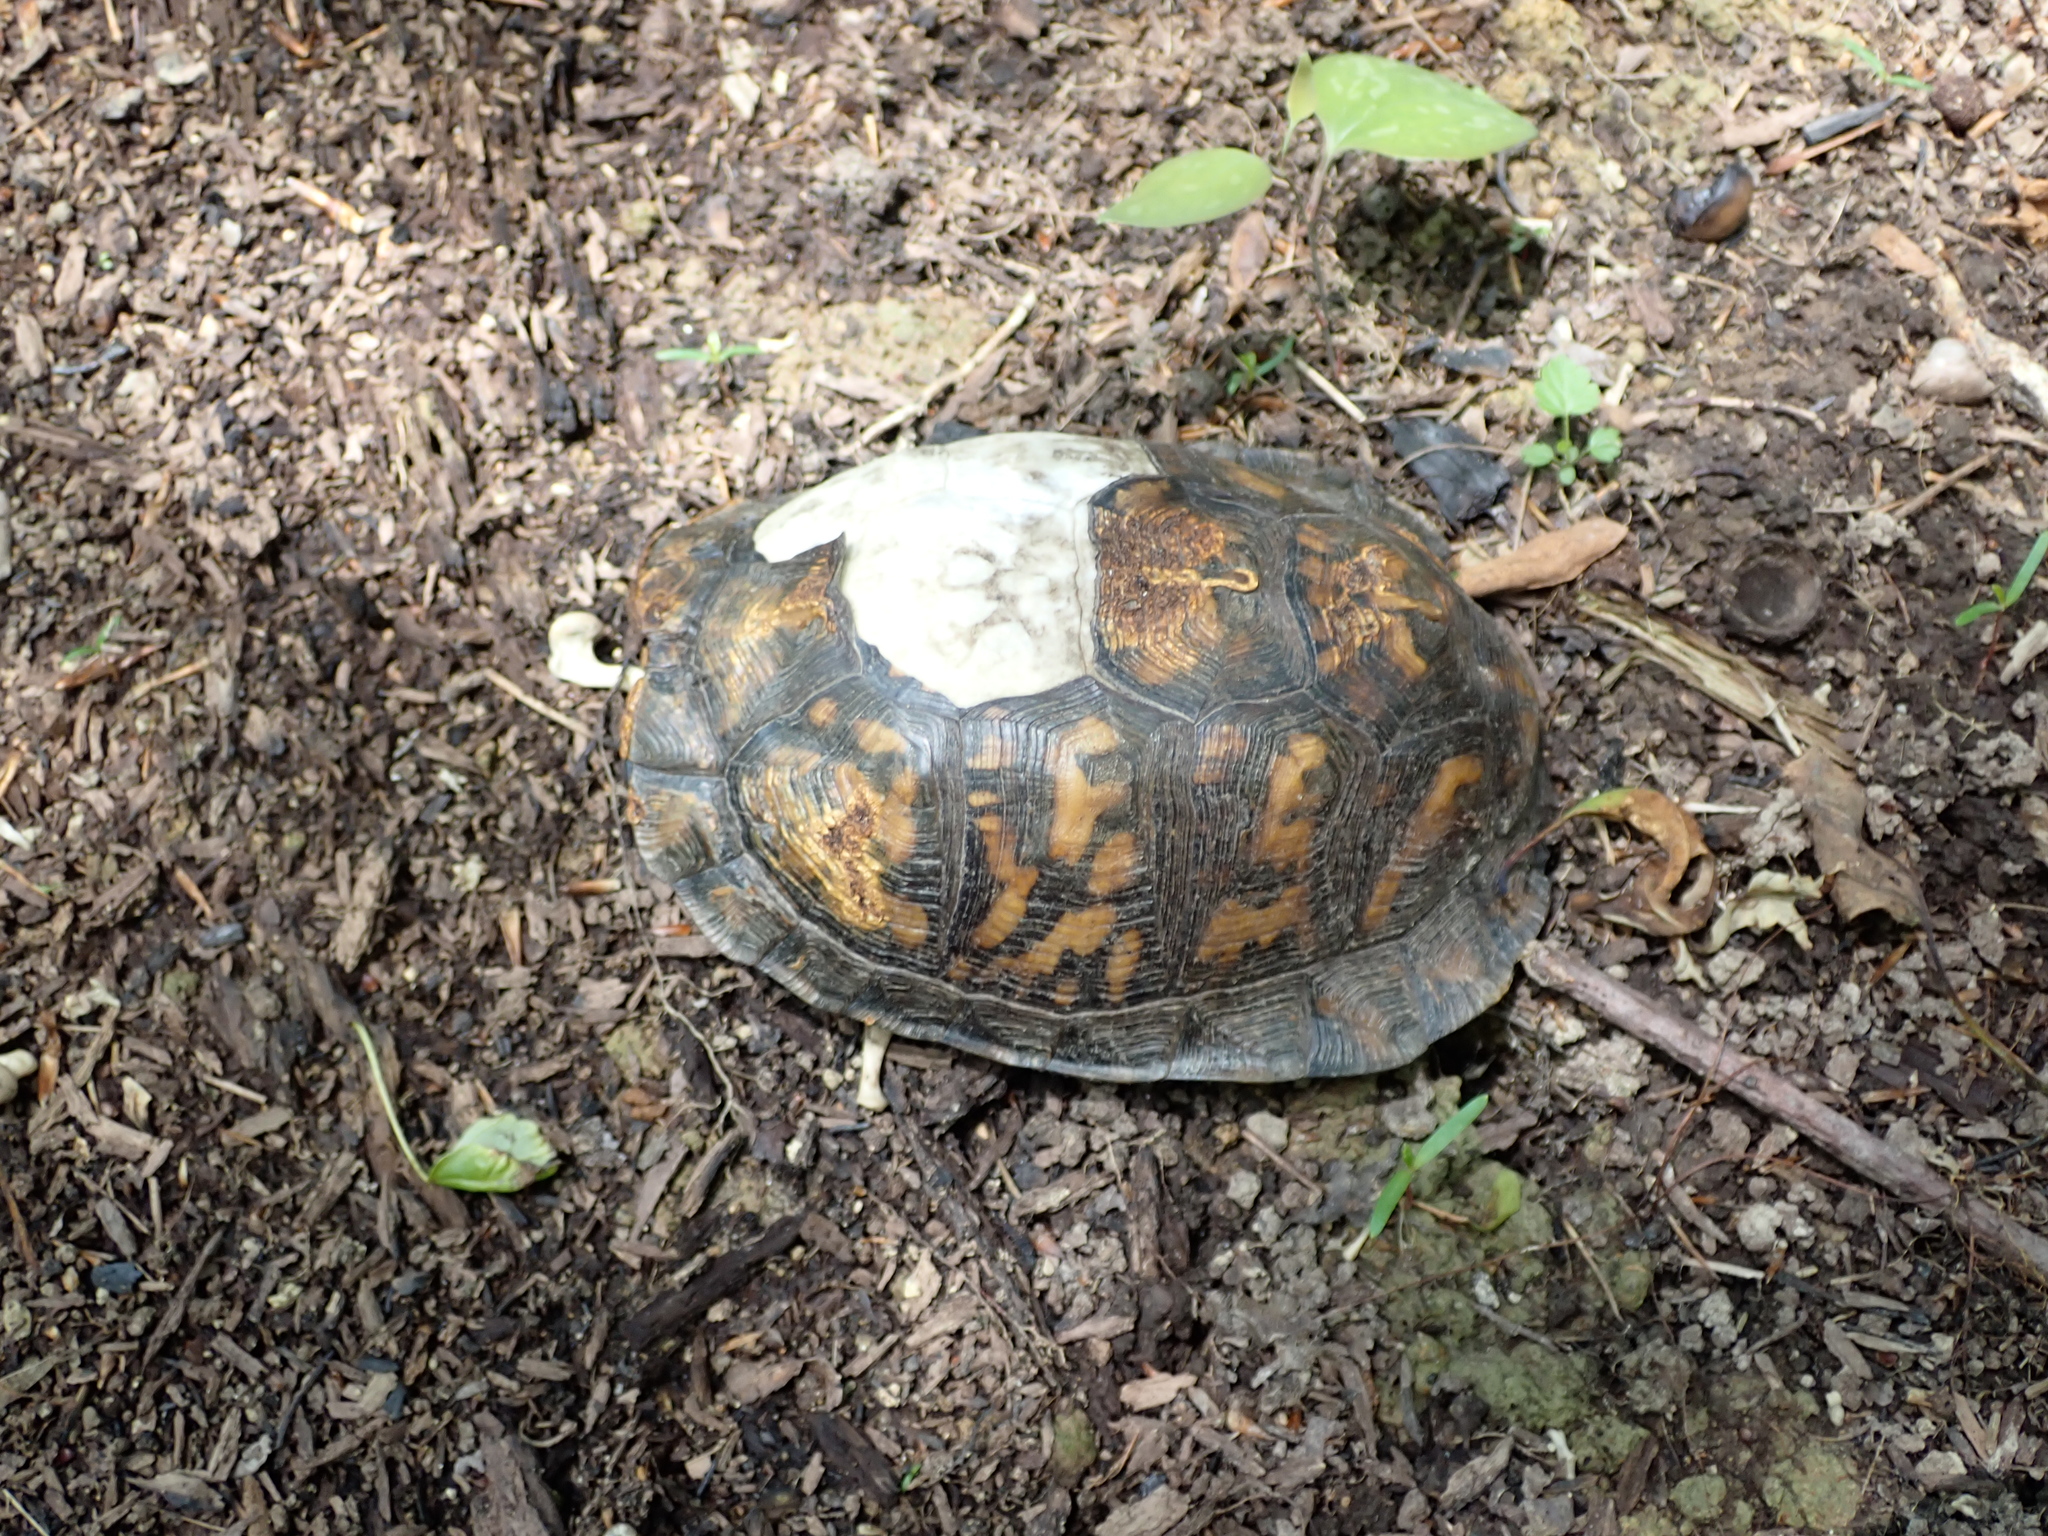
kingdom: Animalia
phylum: Chordata
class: Testudines
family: Emydidae
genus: Terrapene
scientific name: Terrapene carolina
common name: Common box turtle
